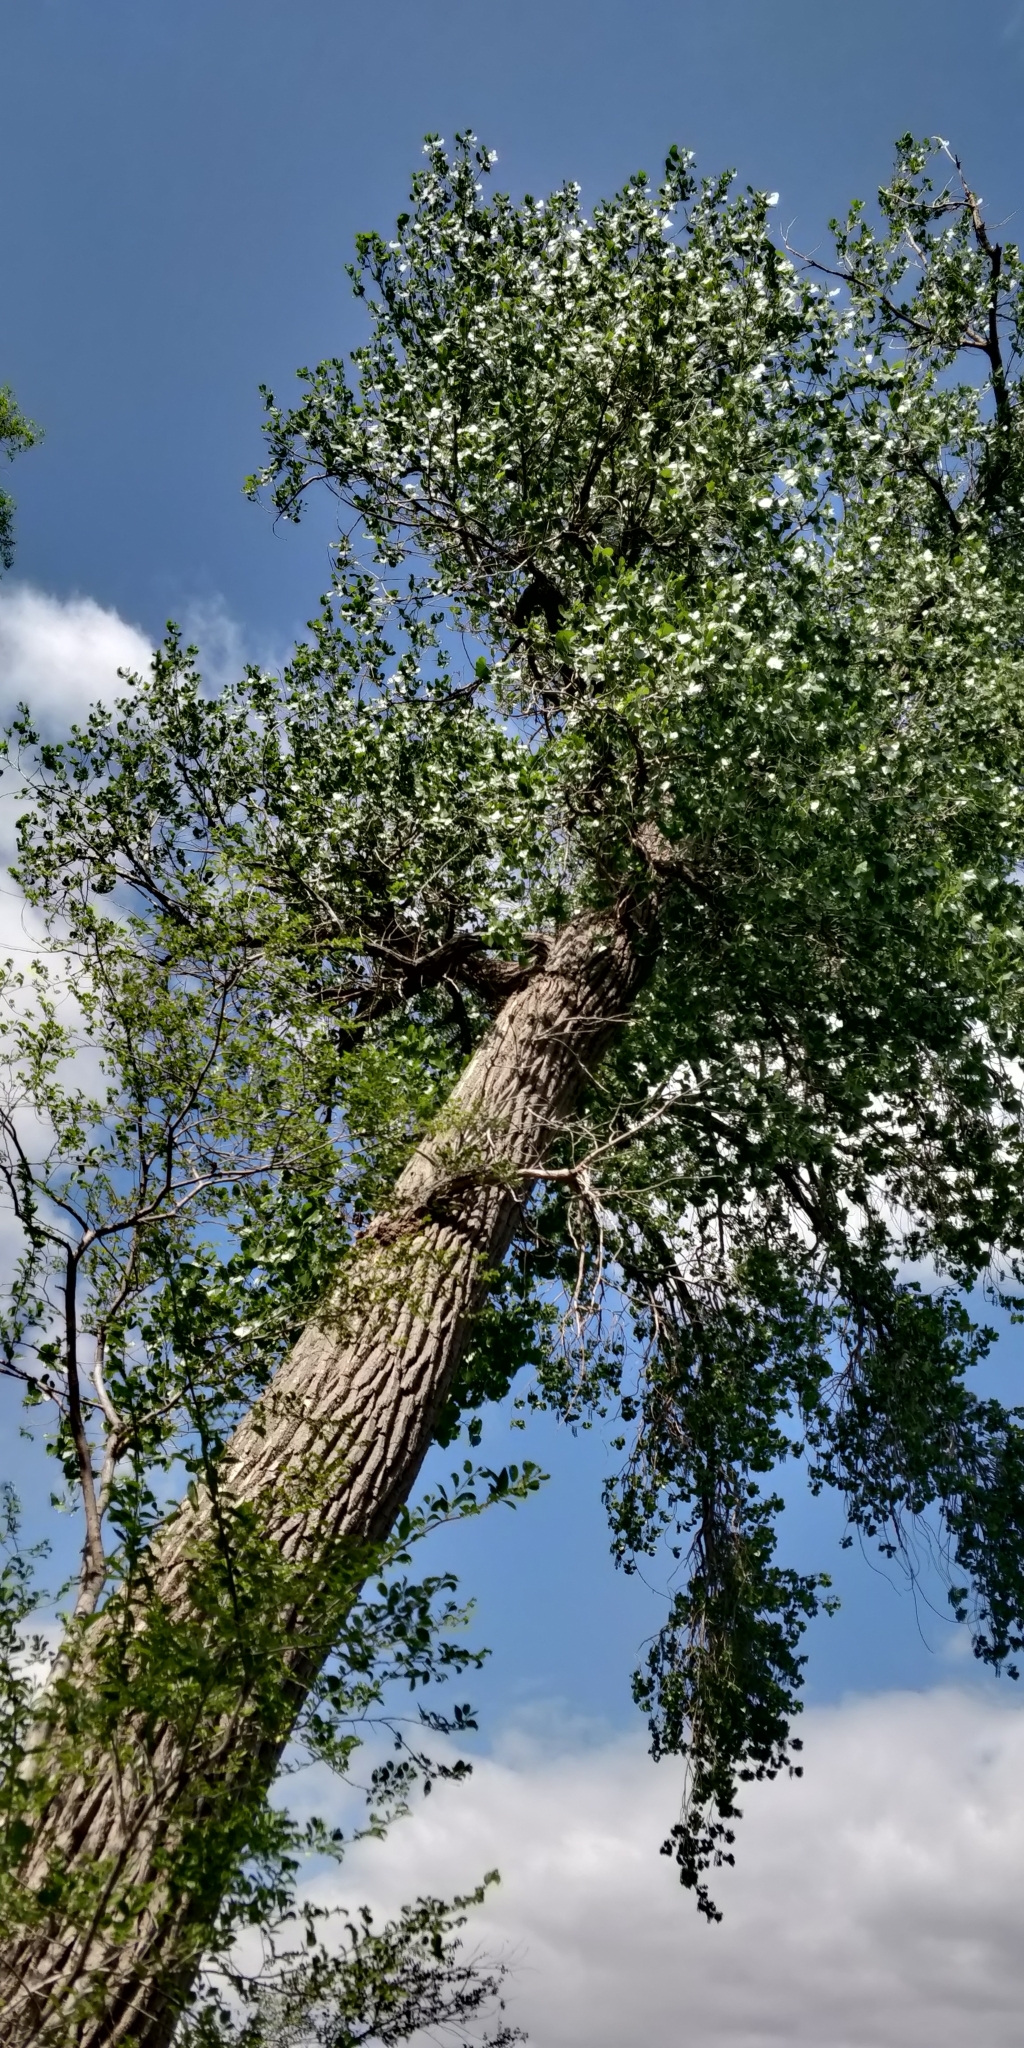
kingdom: Plantae
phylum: Tracheophyta
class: Magnoliopsida
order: Malpighiales
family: Salicaceae
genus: Populus
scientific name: Populus deltoides
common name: Eastern cottonwood
